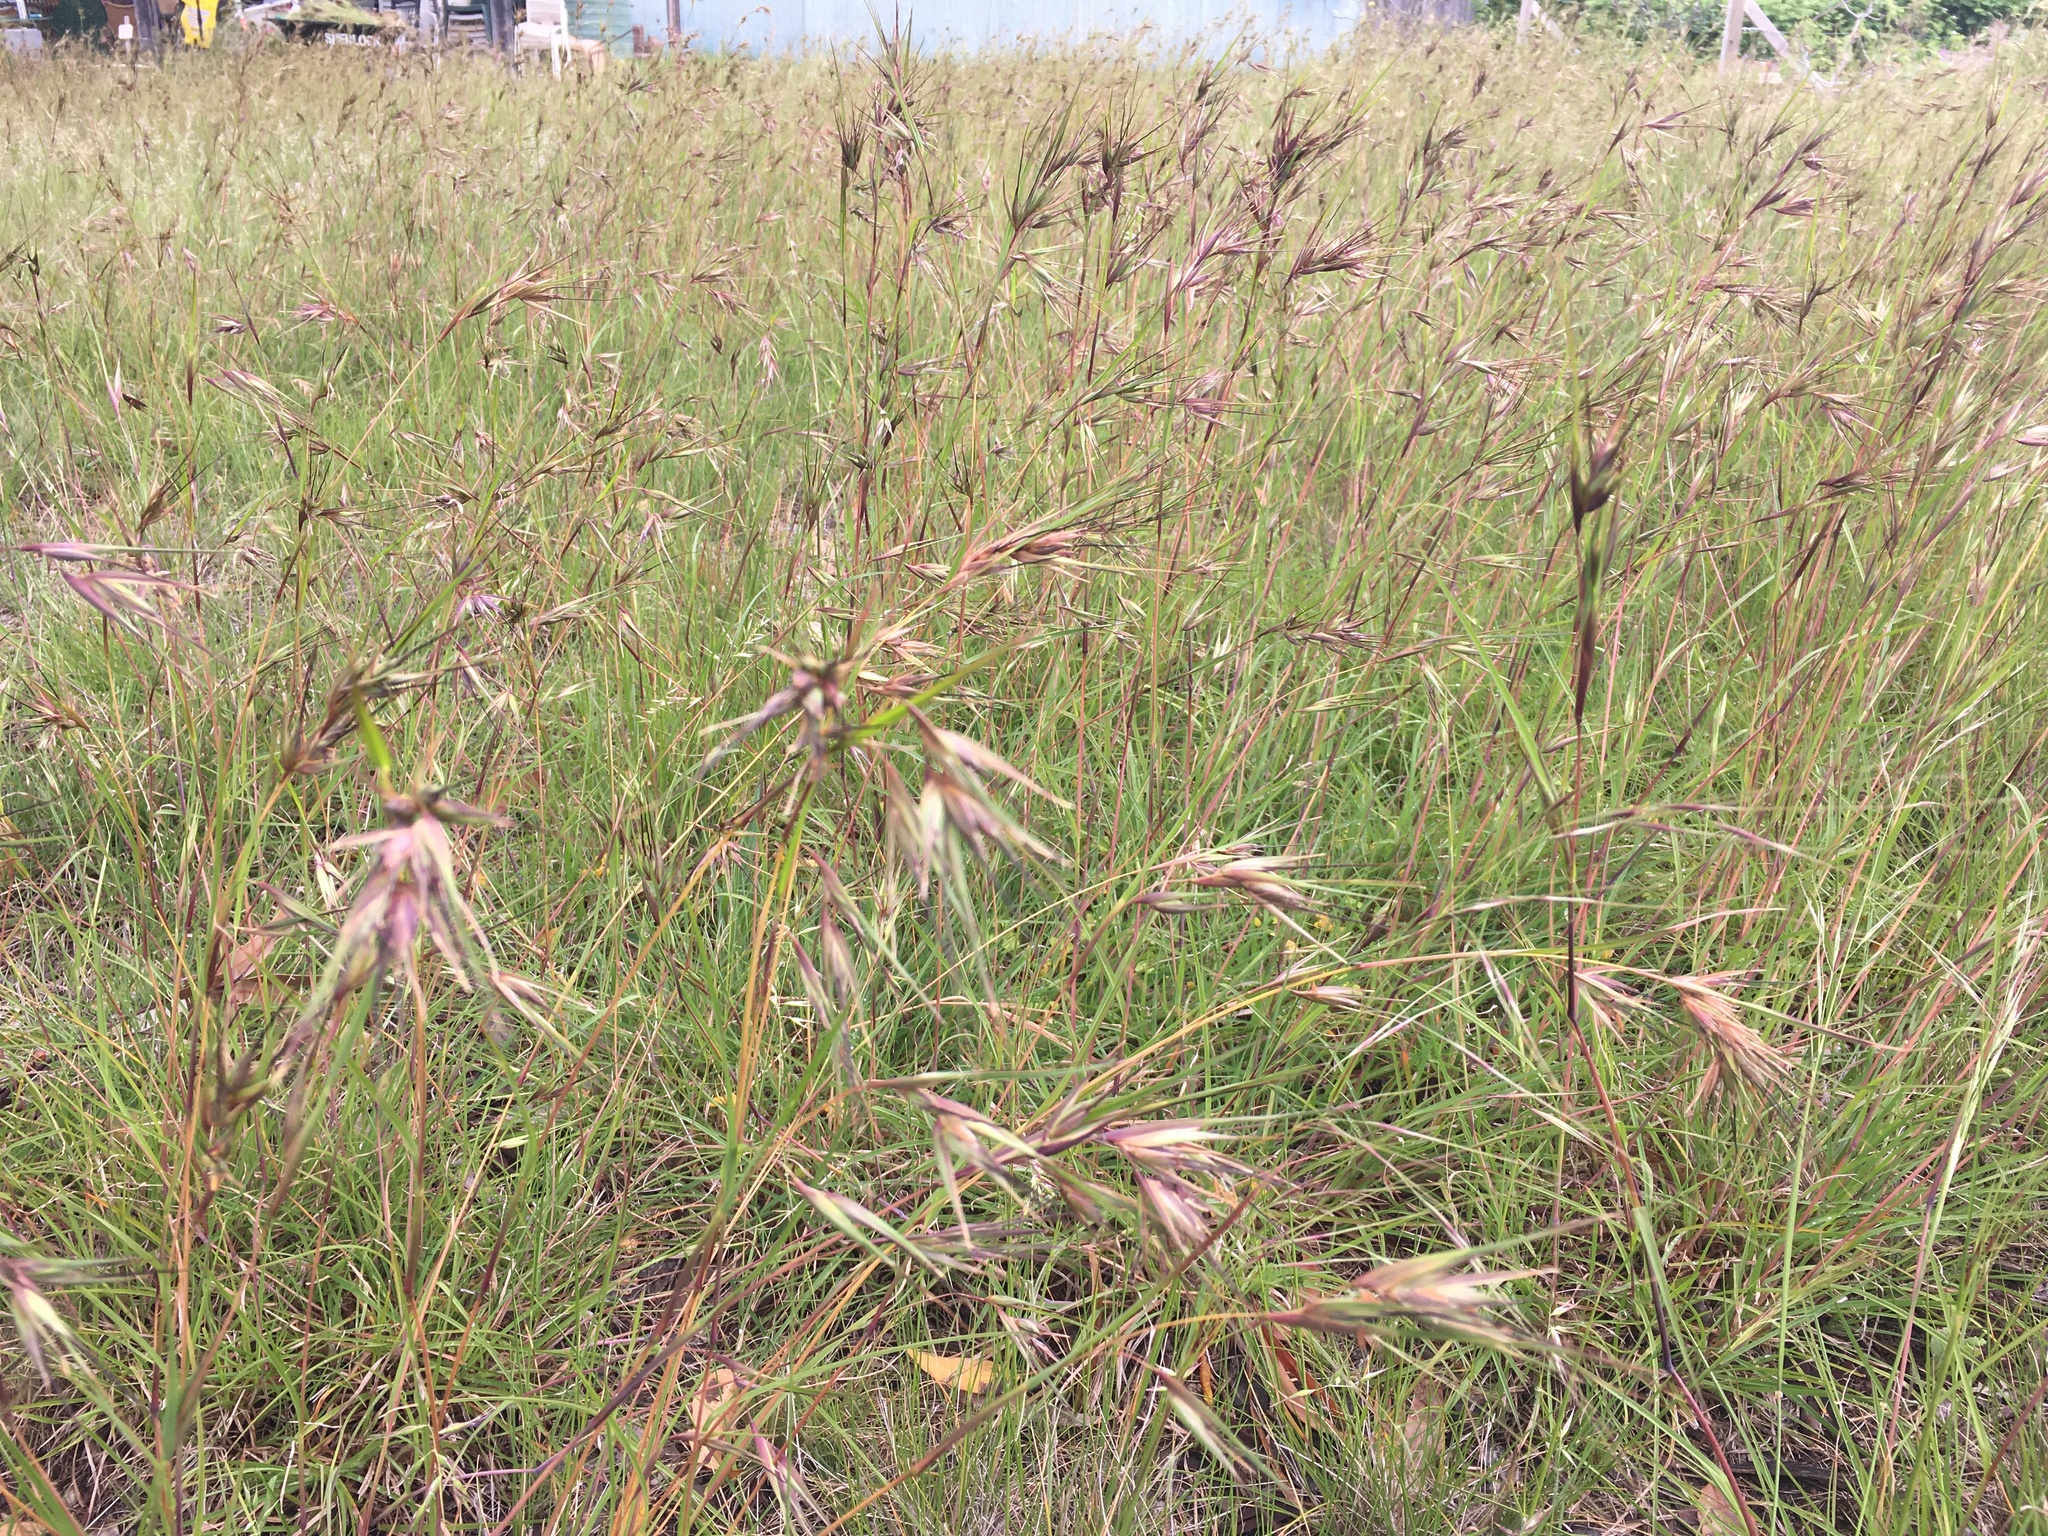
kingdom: Plantae
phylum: Tracheophyta
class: Liliopsida
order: Poales
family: Poaceae
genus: Themeda
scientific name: Themeda triandra
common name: Kangaroo grass
